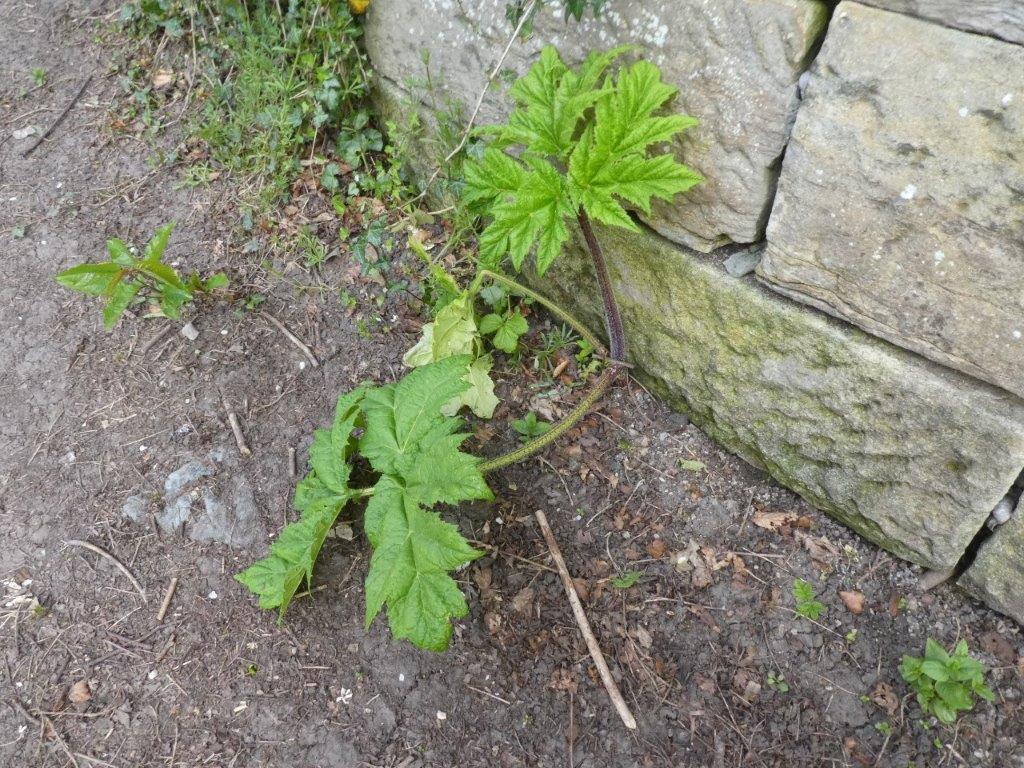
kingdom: Plantae
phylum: Tracheophyta
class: Magnoliopsida
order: Apiales
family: Apiaceae
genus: Heracleum
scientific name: Heracleum mantegazzianum
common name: Giant hogweed
